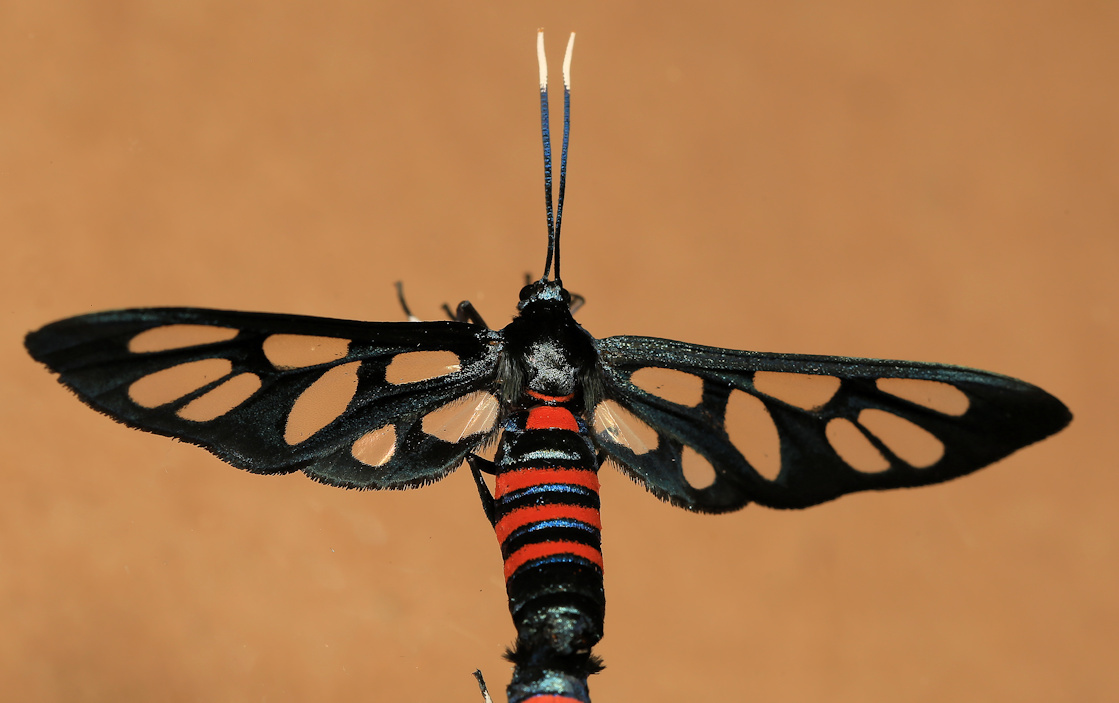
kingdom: Animalia
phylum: Arthropoda
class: Insecta
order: Lepidoptera
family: Erebidae
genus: Amata
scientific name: Amata cerbera
